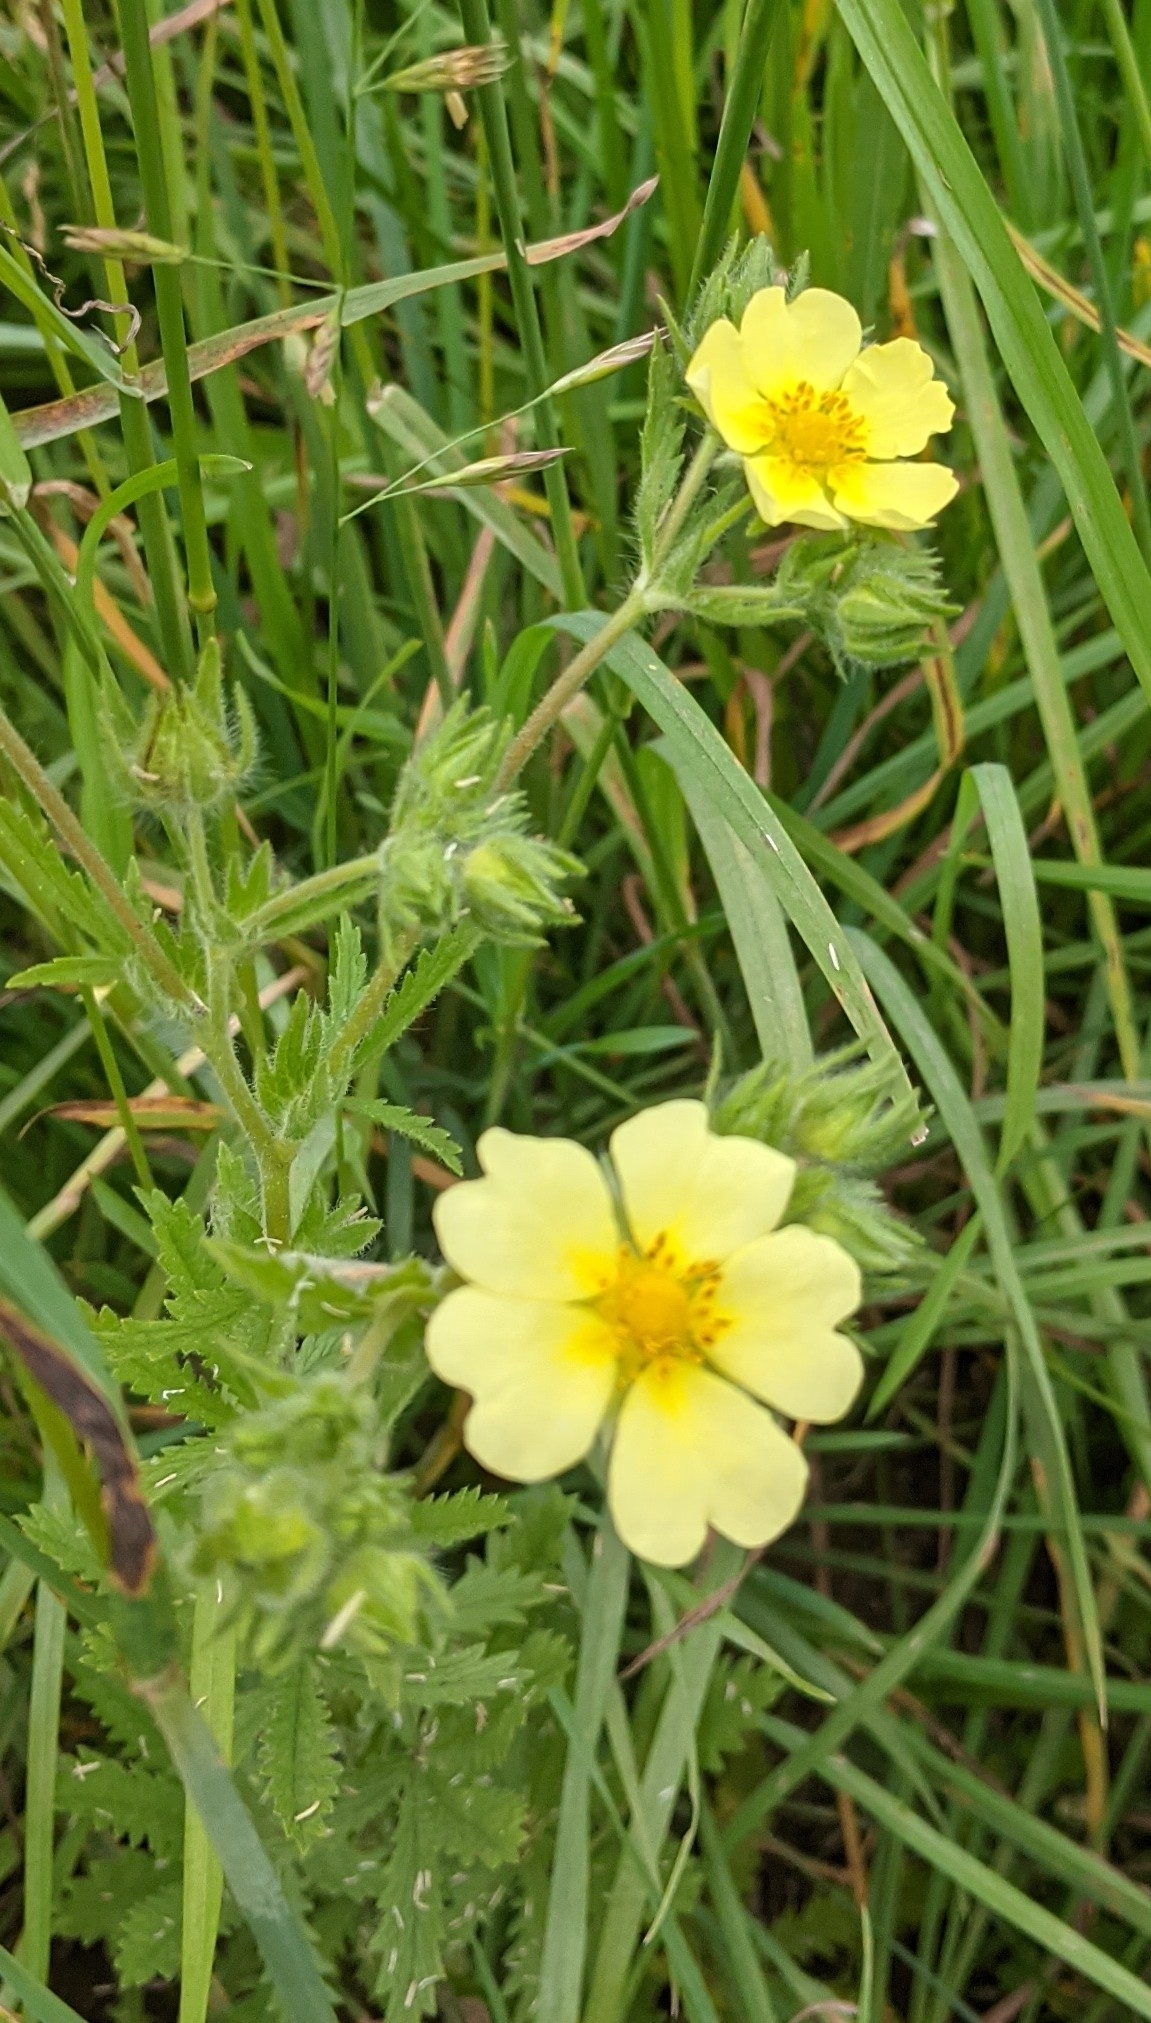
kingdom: Plantae
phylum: Tracheophyta
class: Magnoliopsida
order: Rosales
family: Rosaceae
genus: Potentilla
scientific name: Potentilla recta
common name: Sulphur cinquefoil
